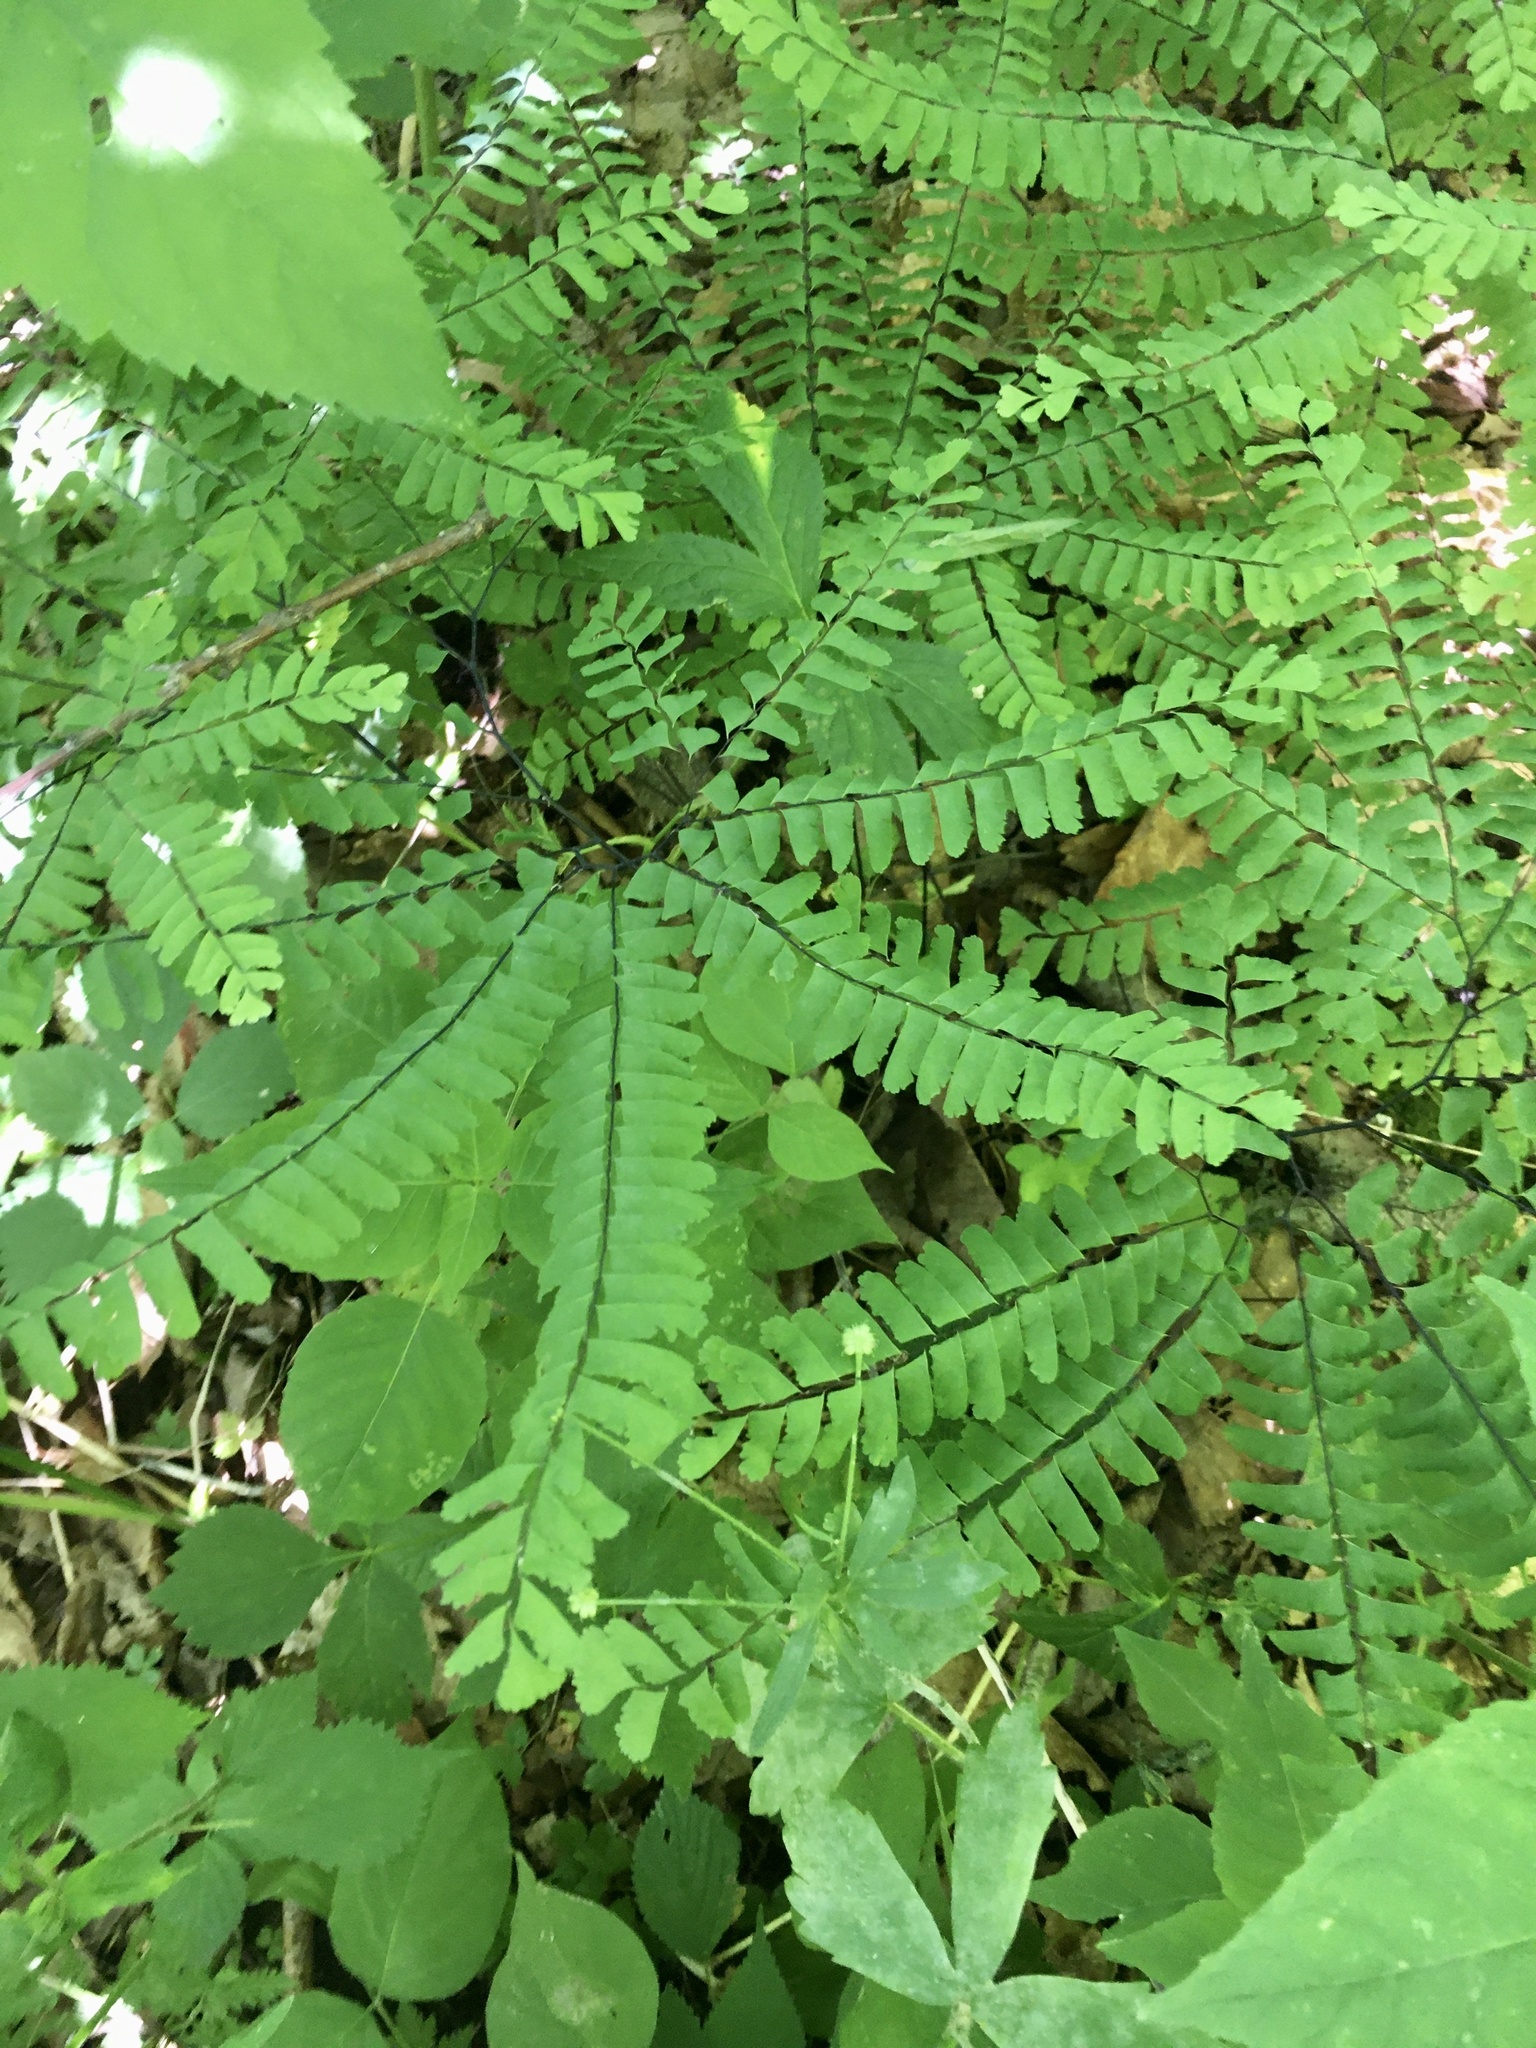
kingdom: Plantae
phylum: Tracheophyta
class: Polypodiopsida
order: Polypodiales
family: Pteridaceae
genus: Adiantum
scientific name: Adiantum pedatum
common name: Five-finger fern
